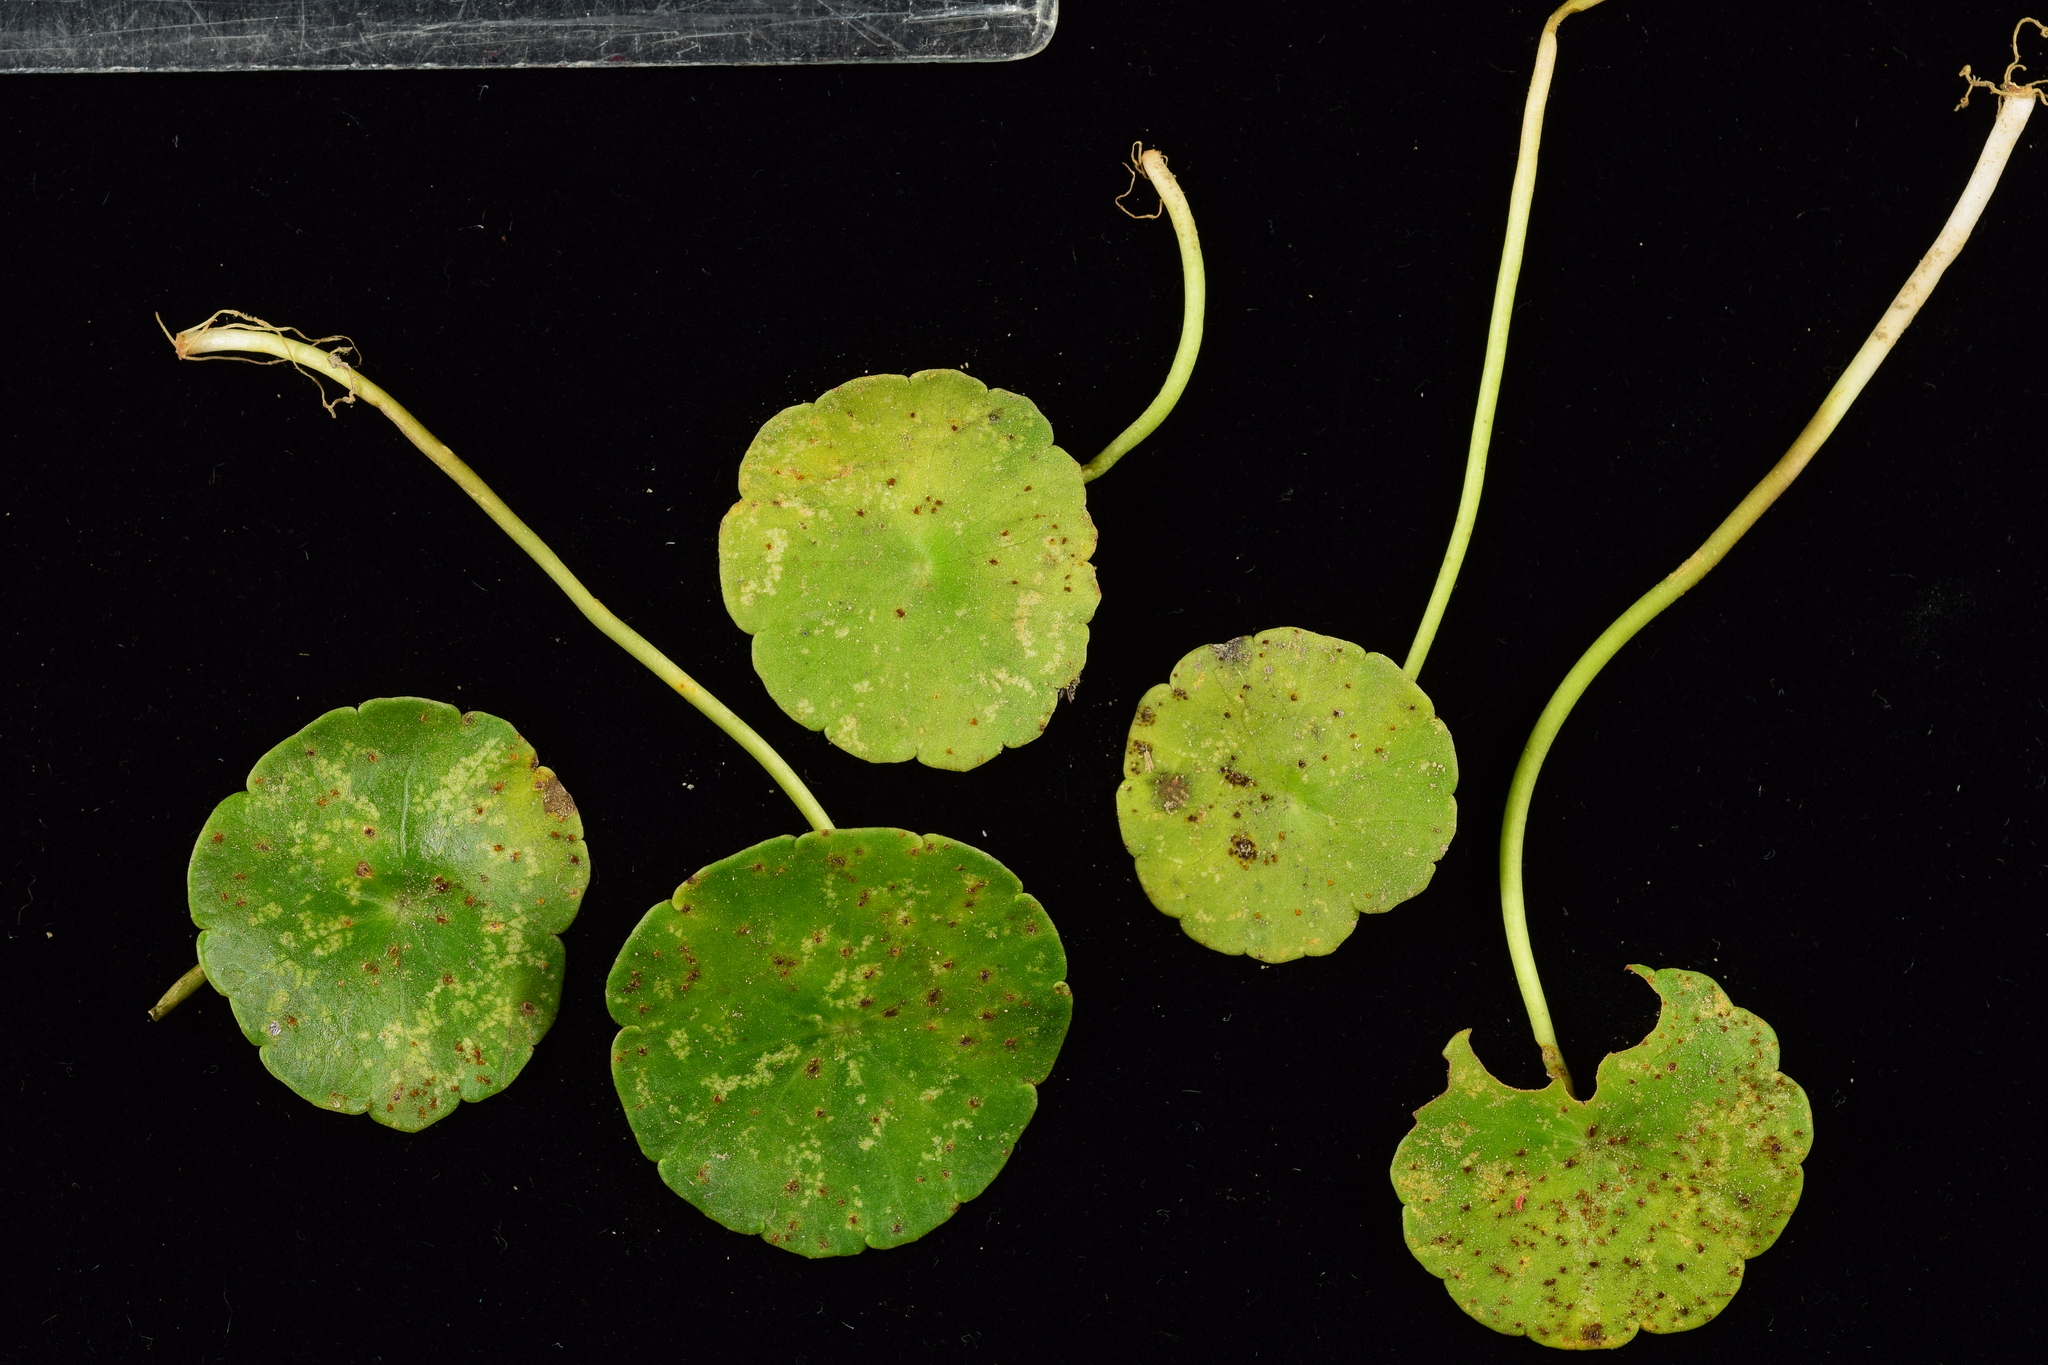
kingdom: Fungi
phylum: Basidiomycota
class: Pucciniomycetes
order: Pucciniales
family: Pucciniaceae
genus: Puccinia
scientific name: Puccinia hydrocotyles
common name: Rusty pennies
